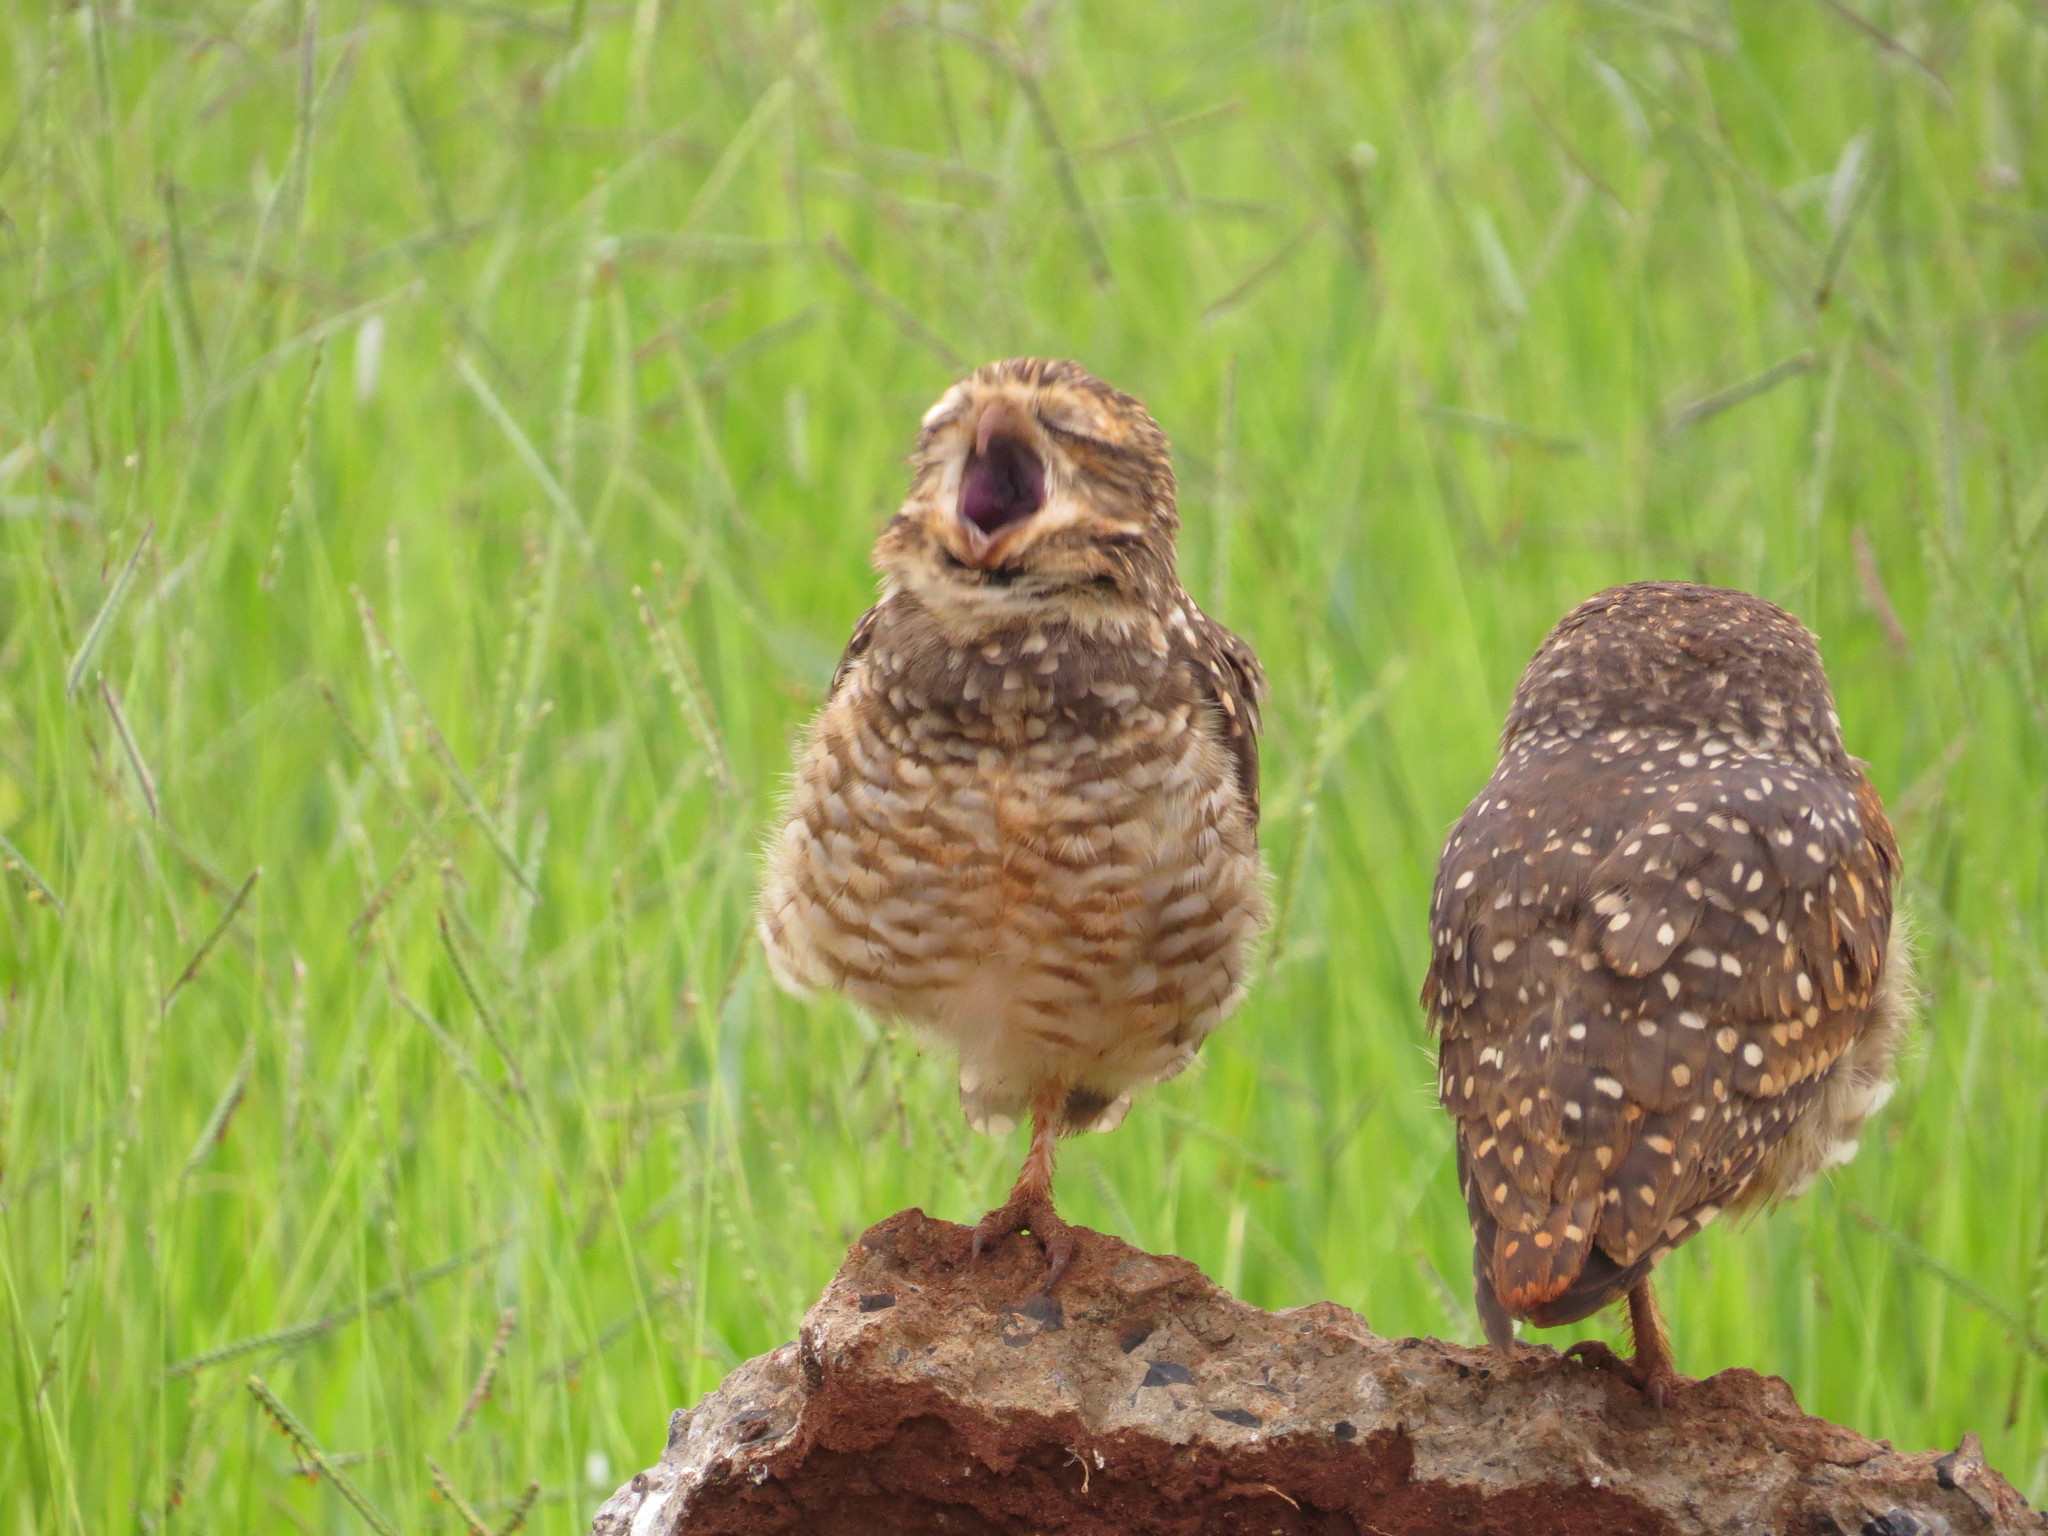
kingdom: Animalia
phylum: Chordata
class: Aves
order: Strigiformes
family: Strigidae
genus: Athene
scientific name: Athene cunicularia
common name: Burrowing owl
